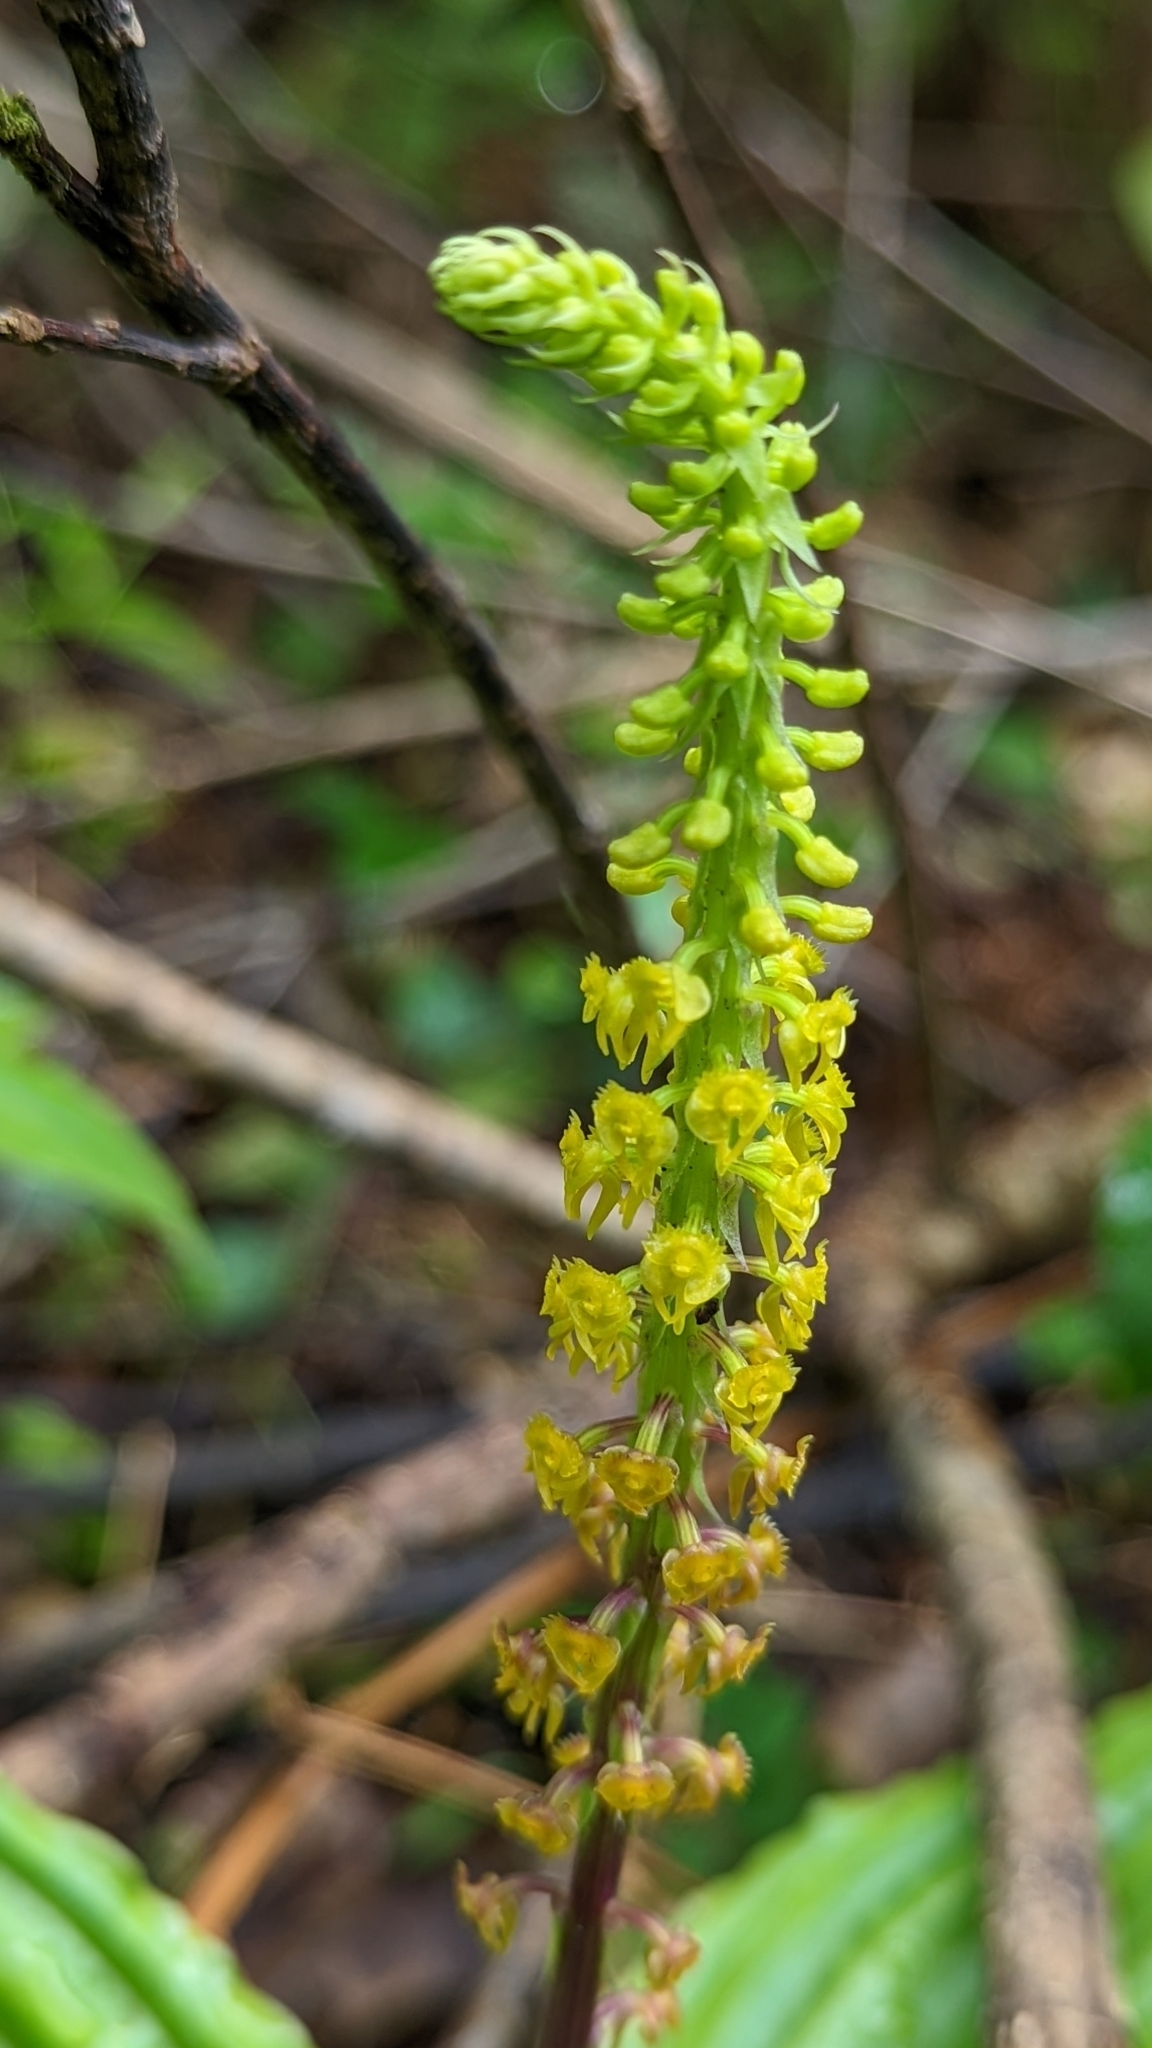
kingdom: Plantae
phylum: Tracheophyta
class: Liliopsida
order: Asparagales
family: Orchidaceae
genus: Malaxis
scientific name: Malaxis versicolor
